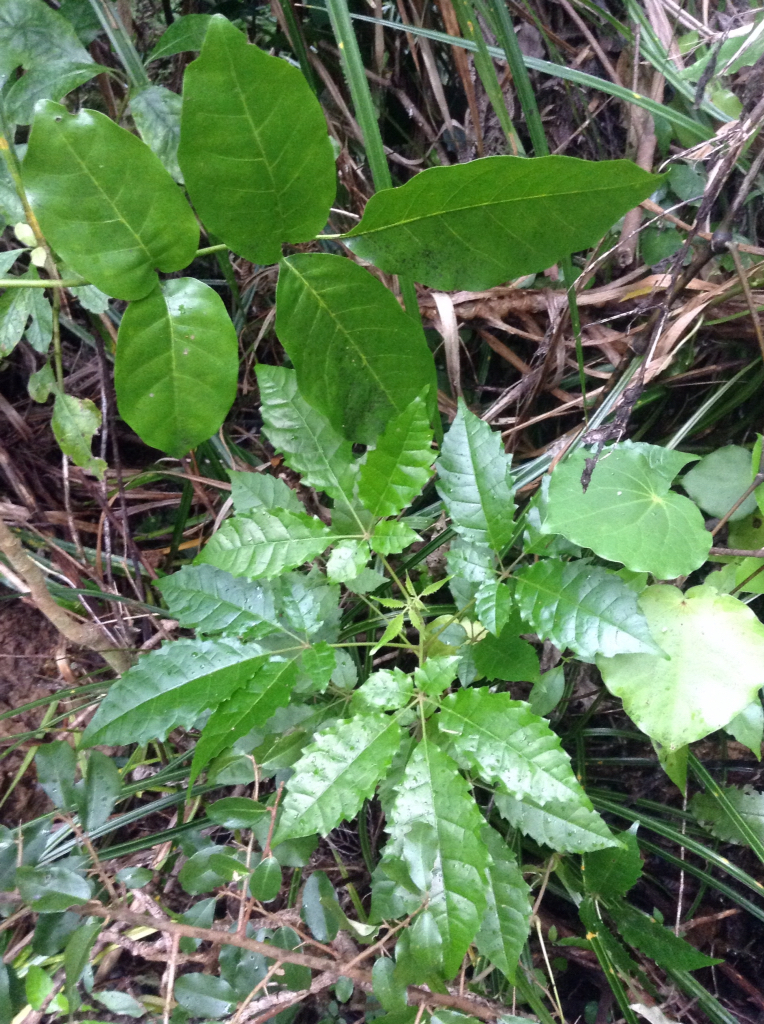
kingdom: Plantae
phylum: Tracheophyta
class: Magnoliopsida
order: Lamiales
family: Lamiaceae
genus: Vitex
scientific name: Vitex lucens
